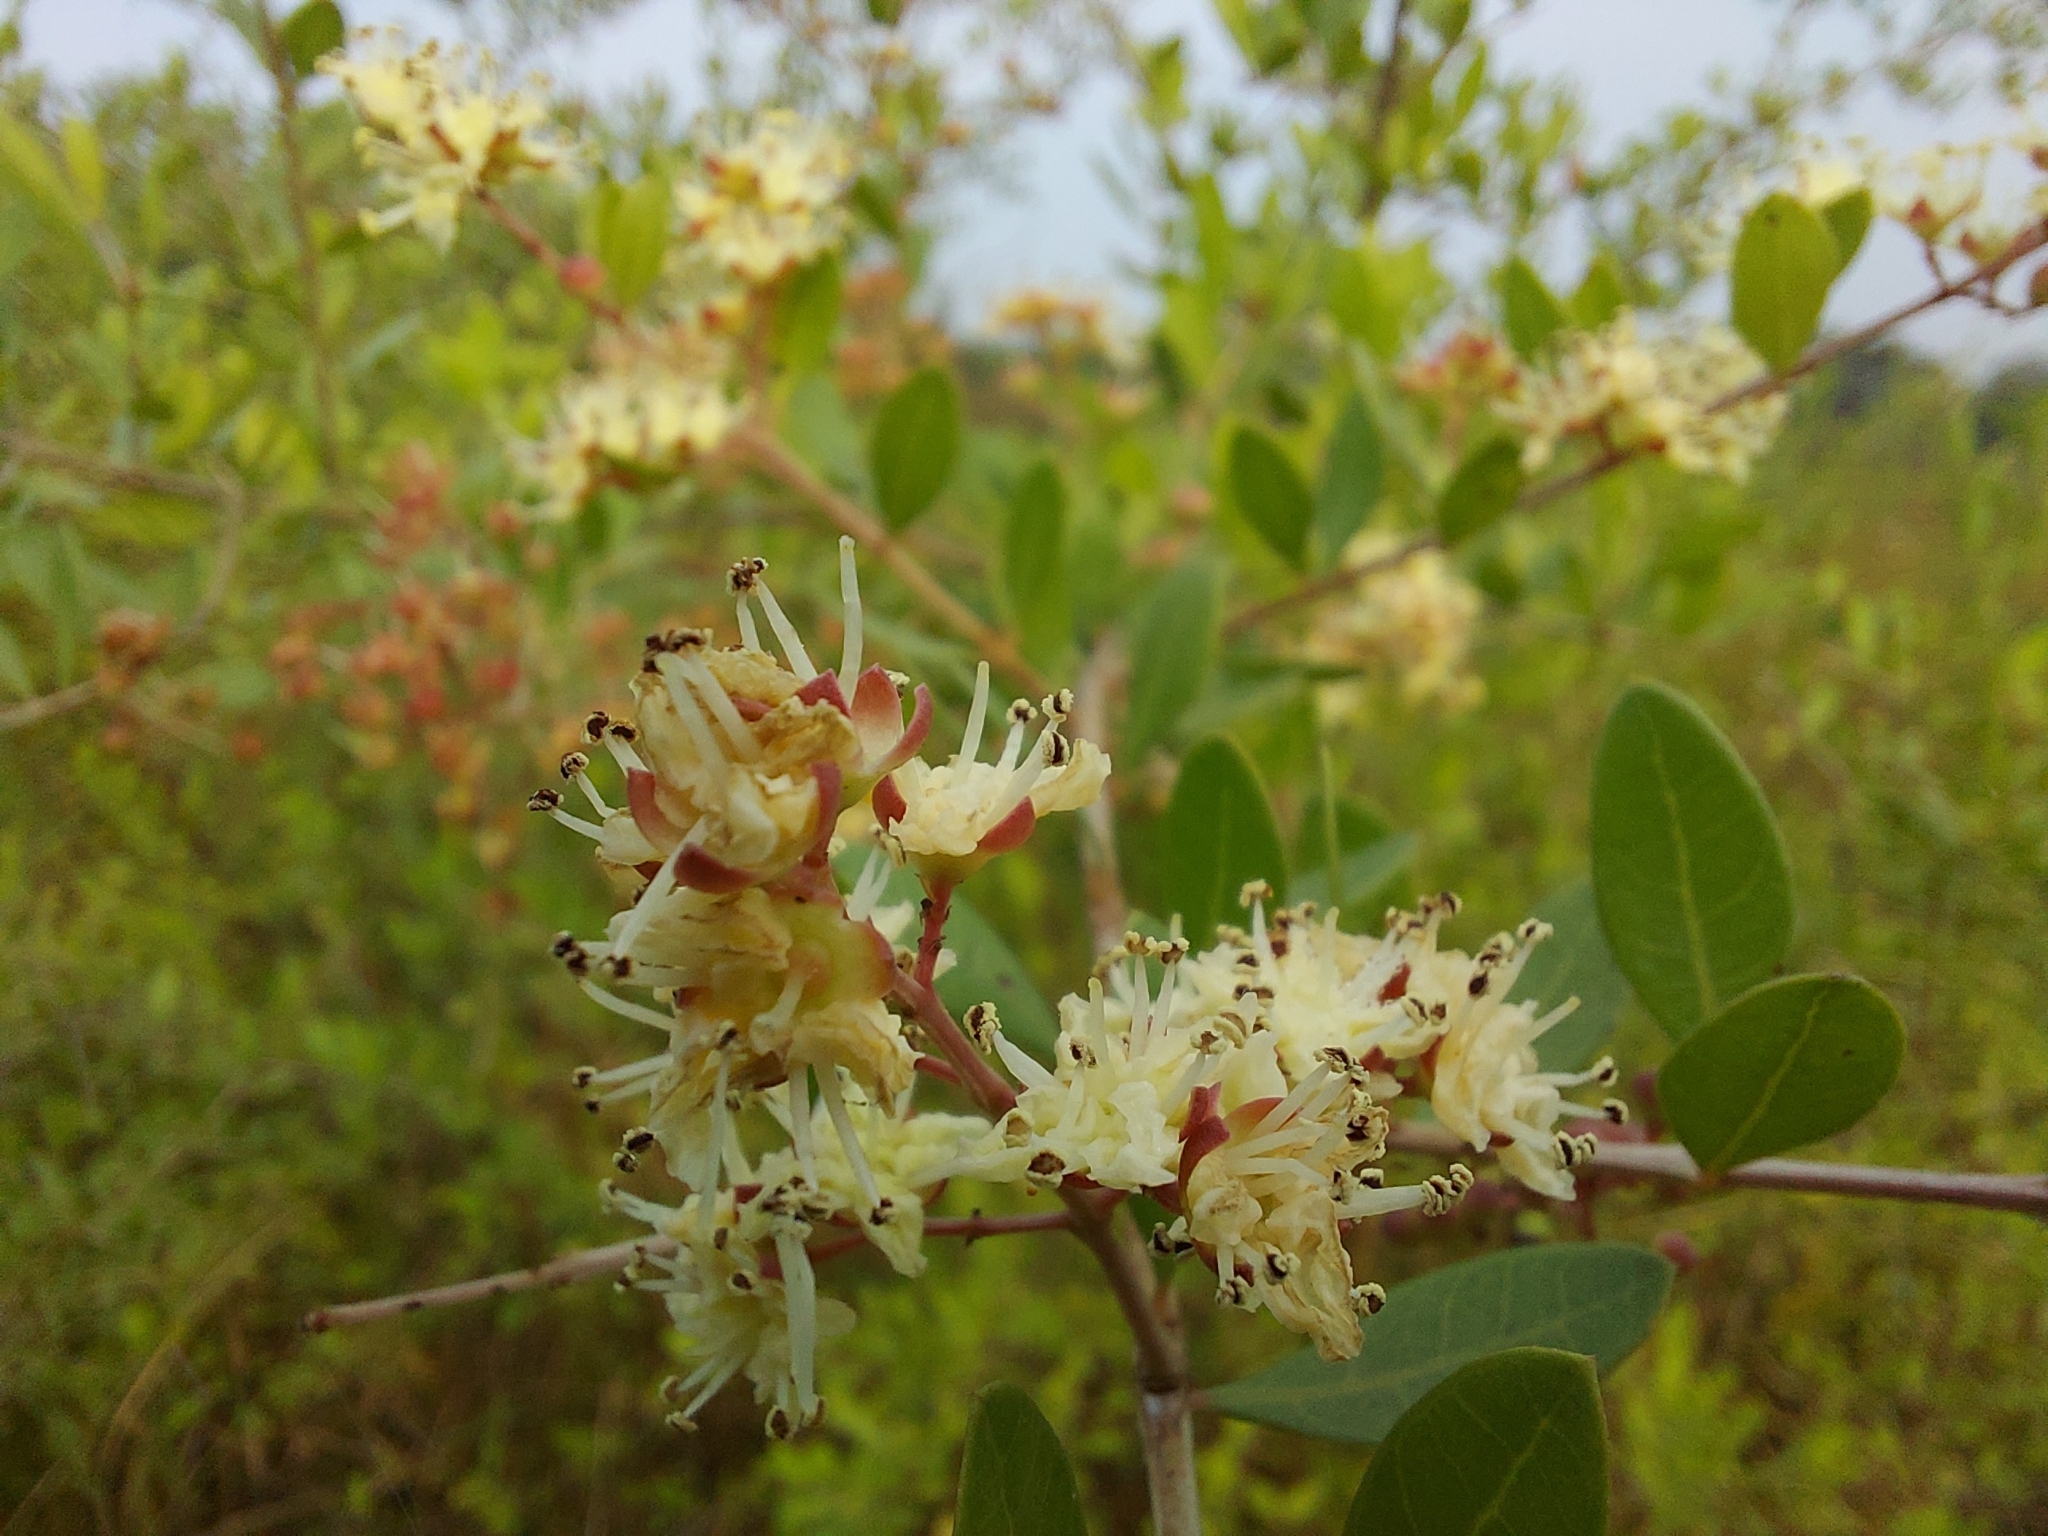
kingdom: Plantae
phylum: Tracheophyta
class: Magnoliopsida
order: Myrtales
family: Lythraceae
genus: Lawsonia
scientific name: Lawsonia inermis
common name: Henna
